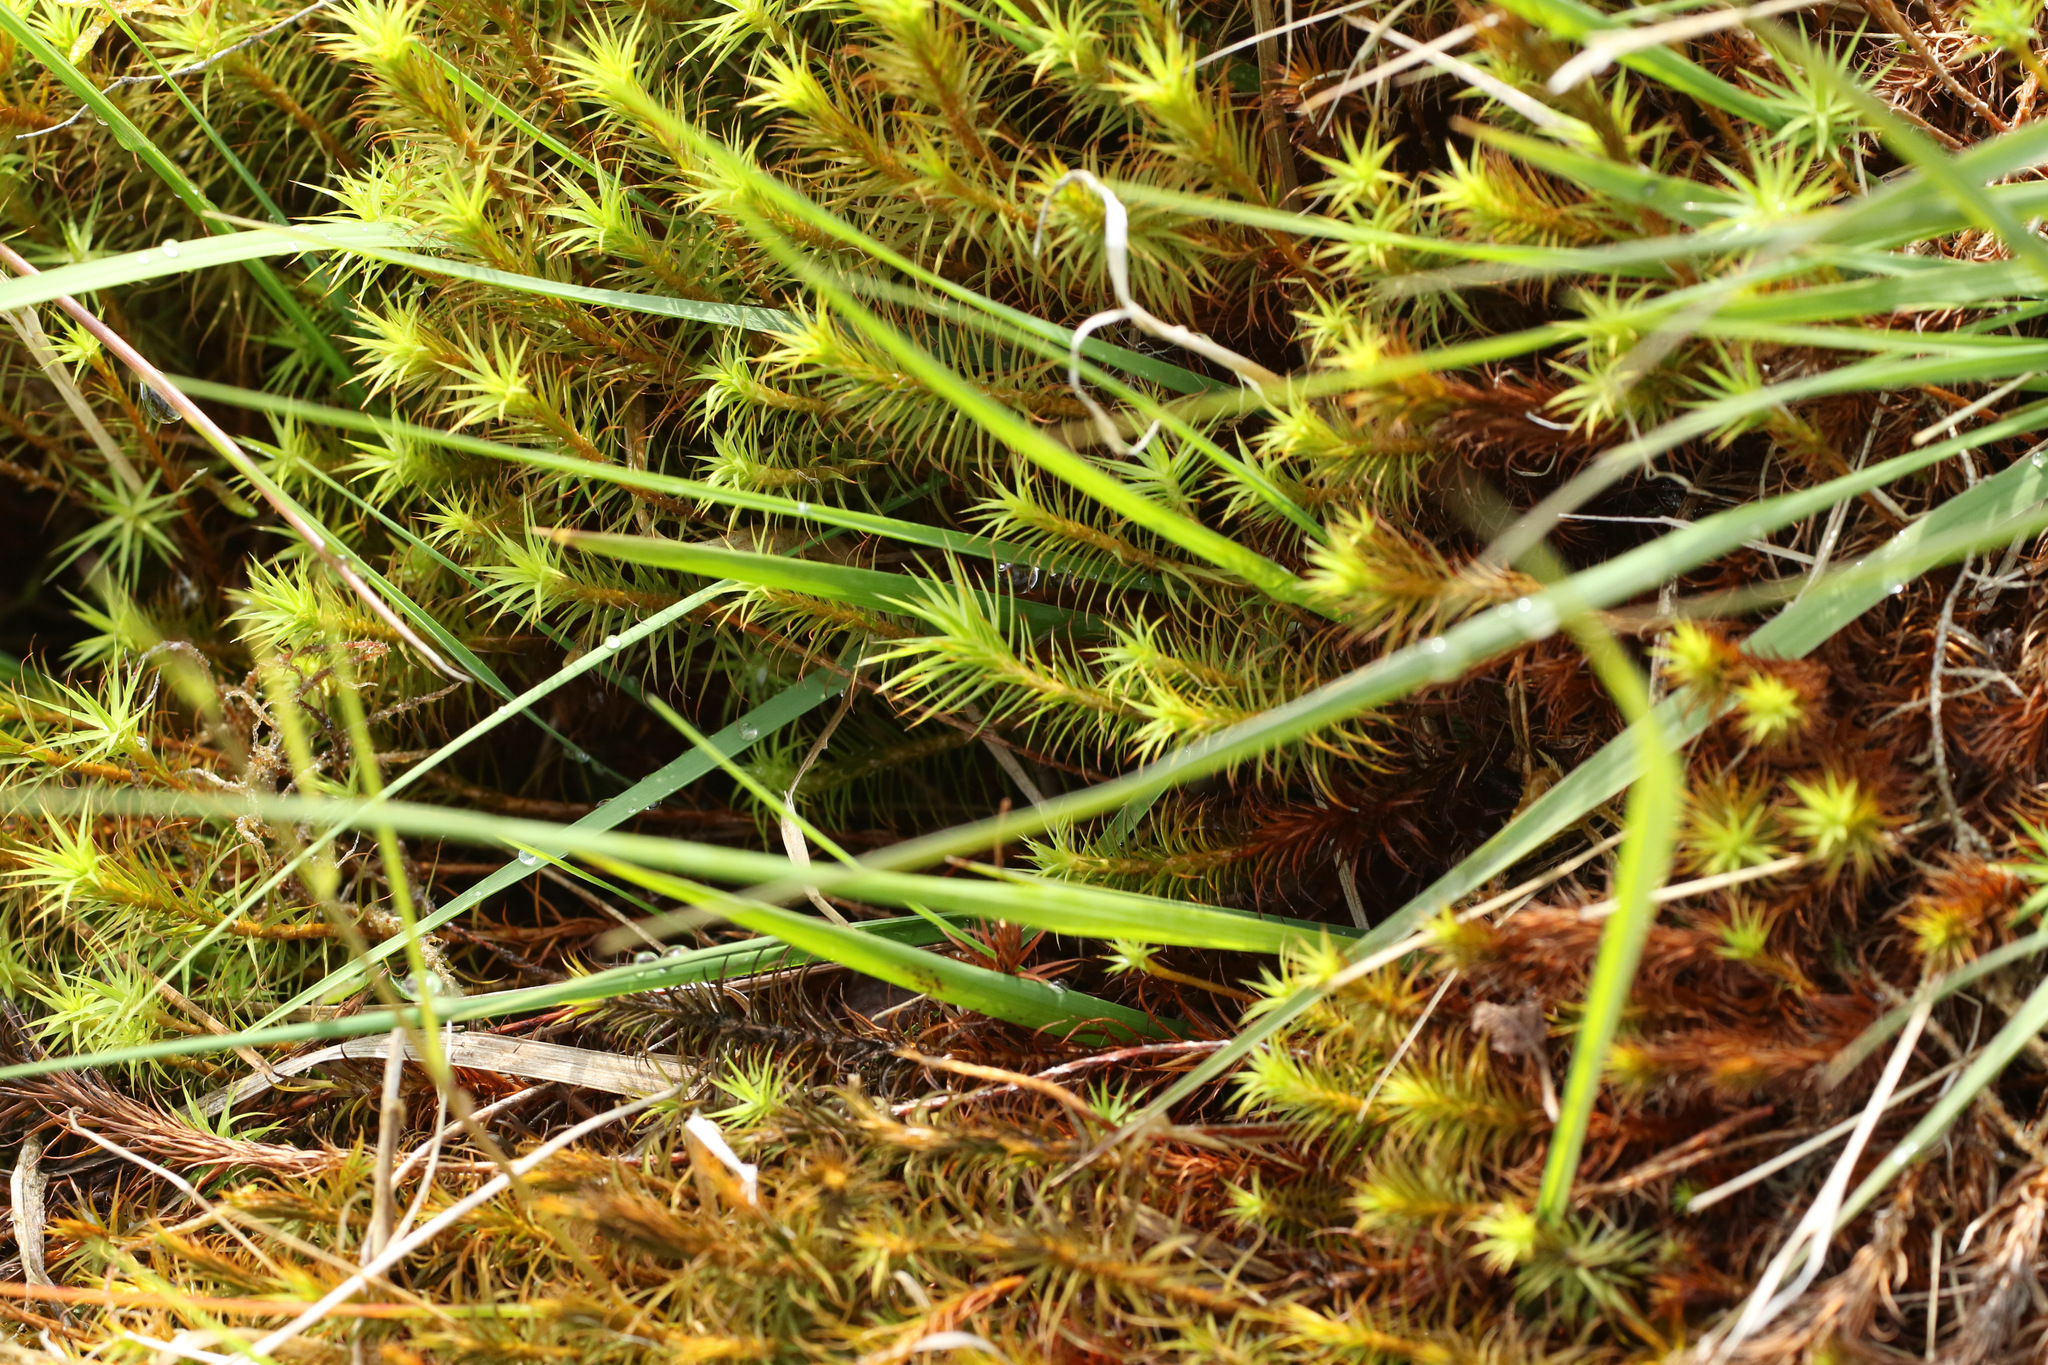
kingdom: Plantae
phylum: Bryophyta
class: Polytrichopsida
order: Polytrichales
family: Polytrichaceae
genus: Polytrichum
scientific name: Polytrichum commune
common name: Common haircap
